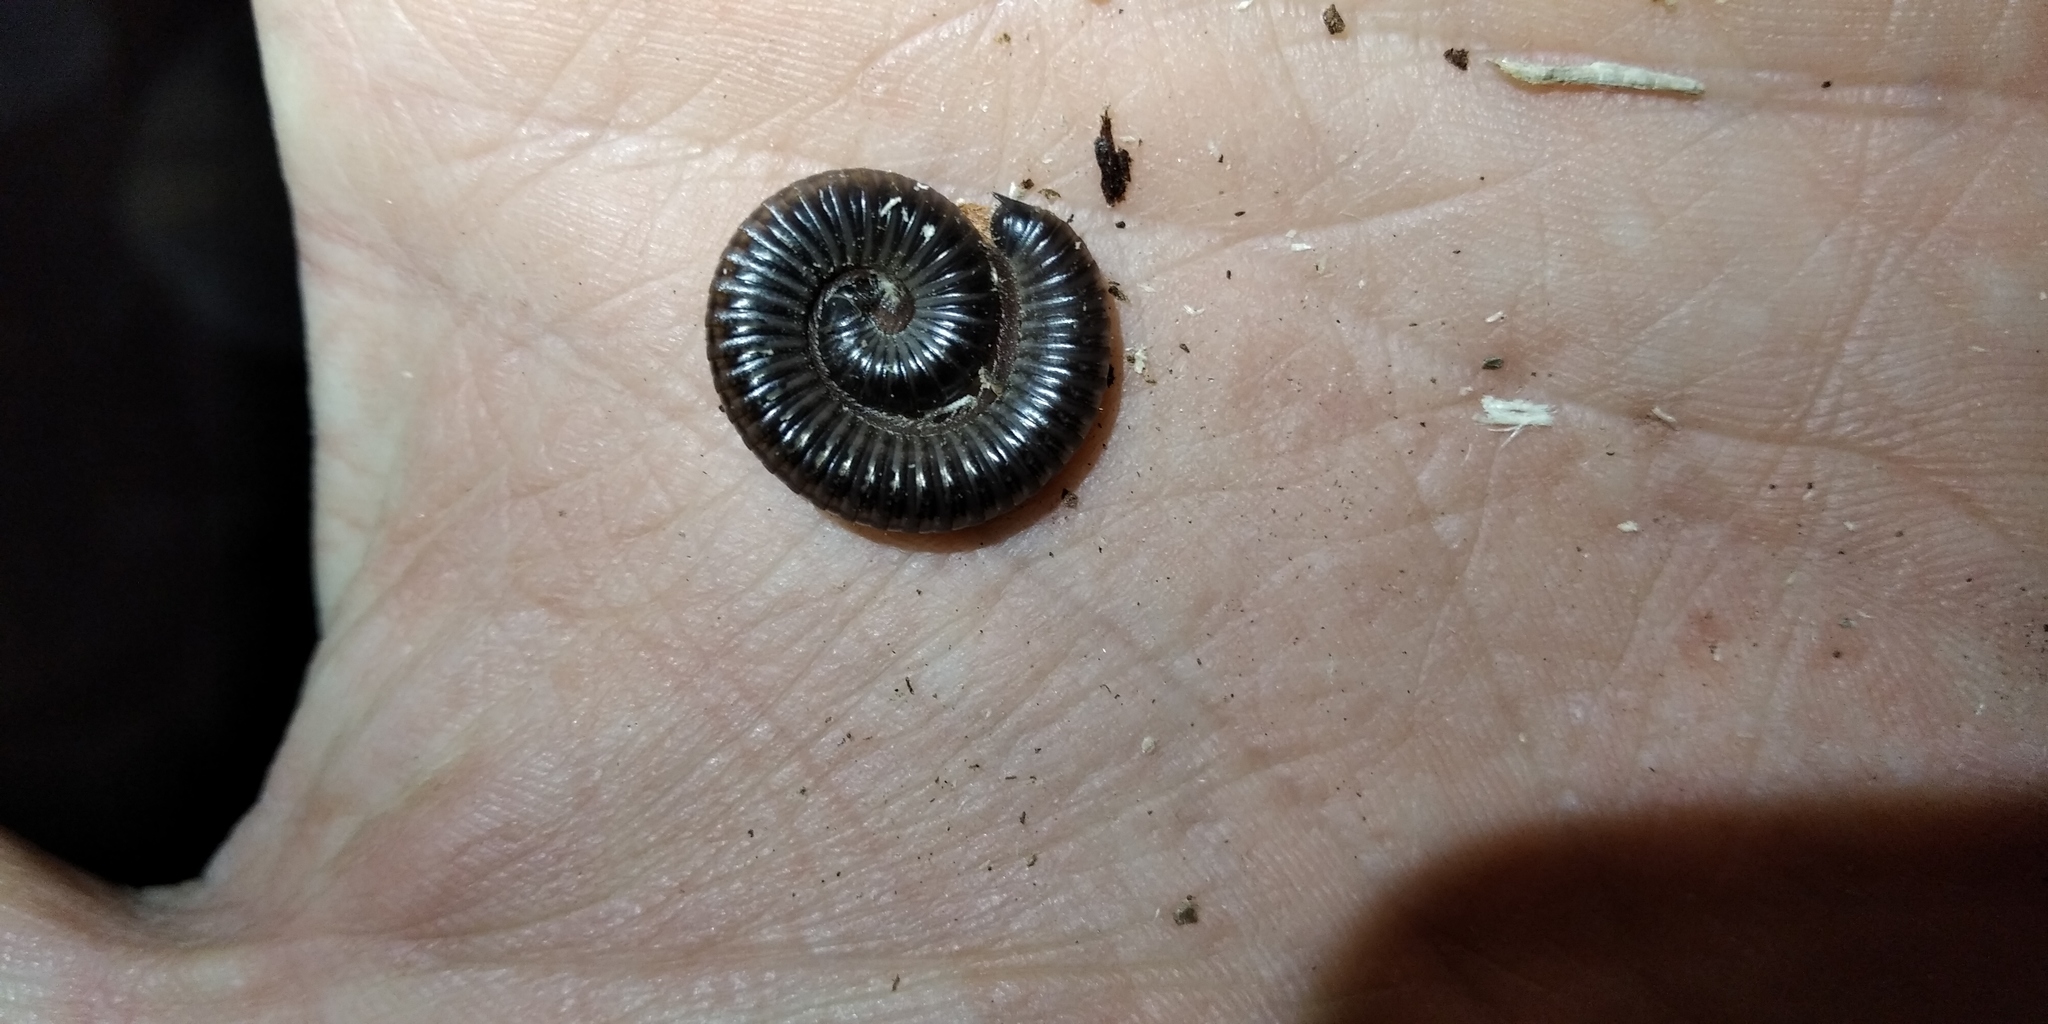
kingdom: Animalia
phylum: Arthropoda
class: Diplopoda
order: Julida
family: Julidae
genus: Rossiulus
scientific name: Rossiulus kessleri
